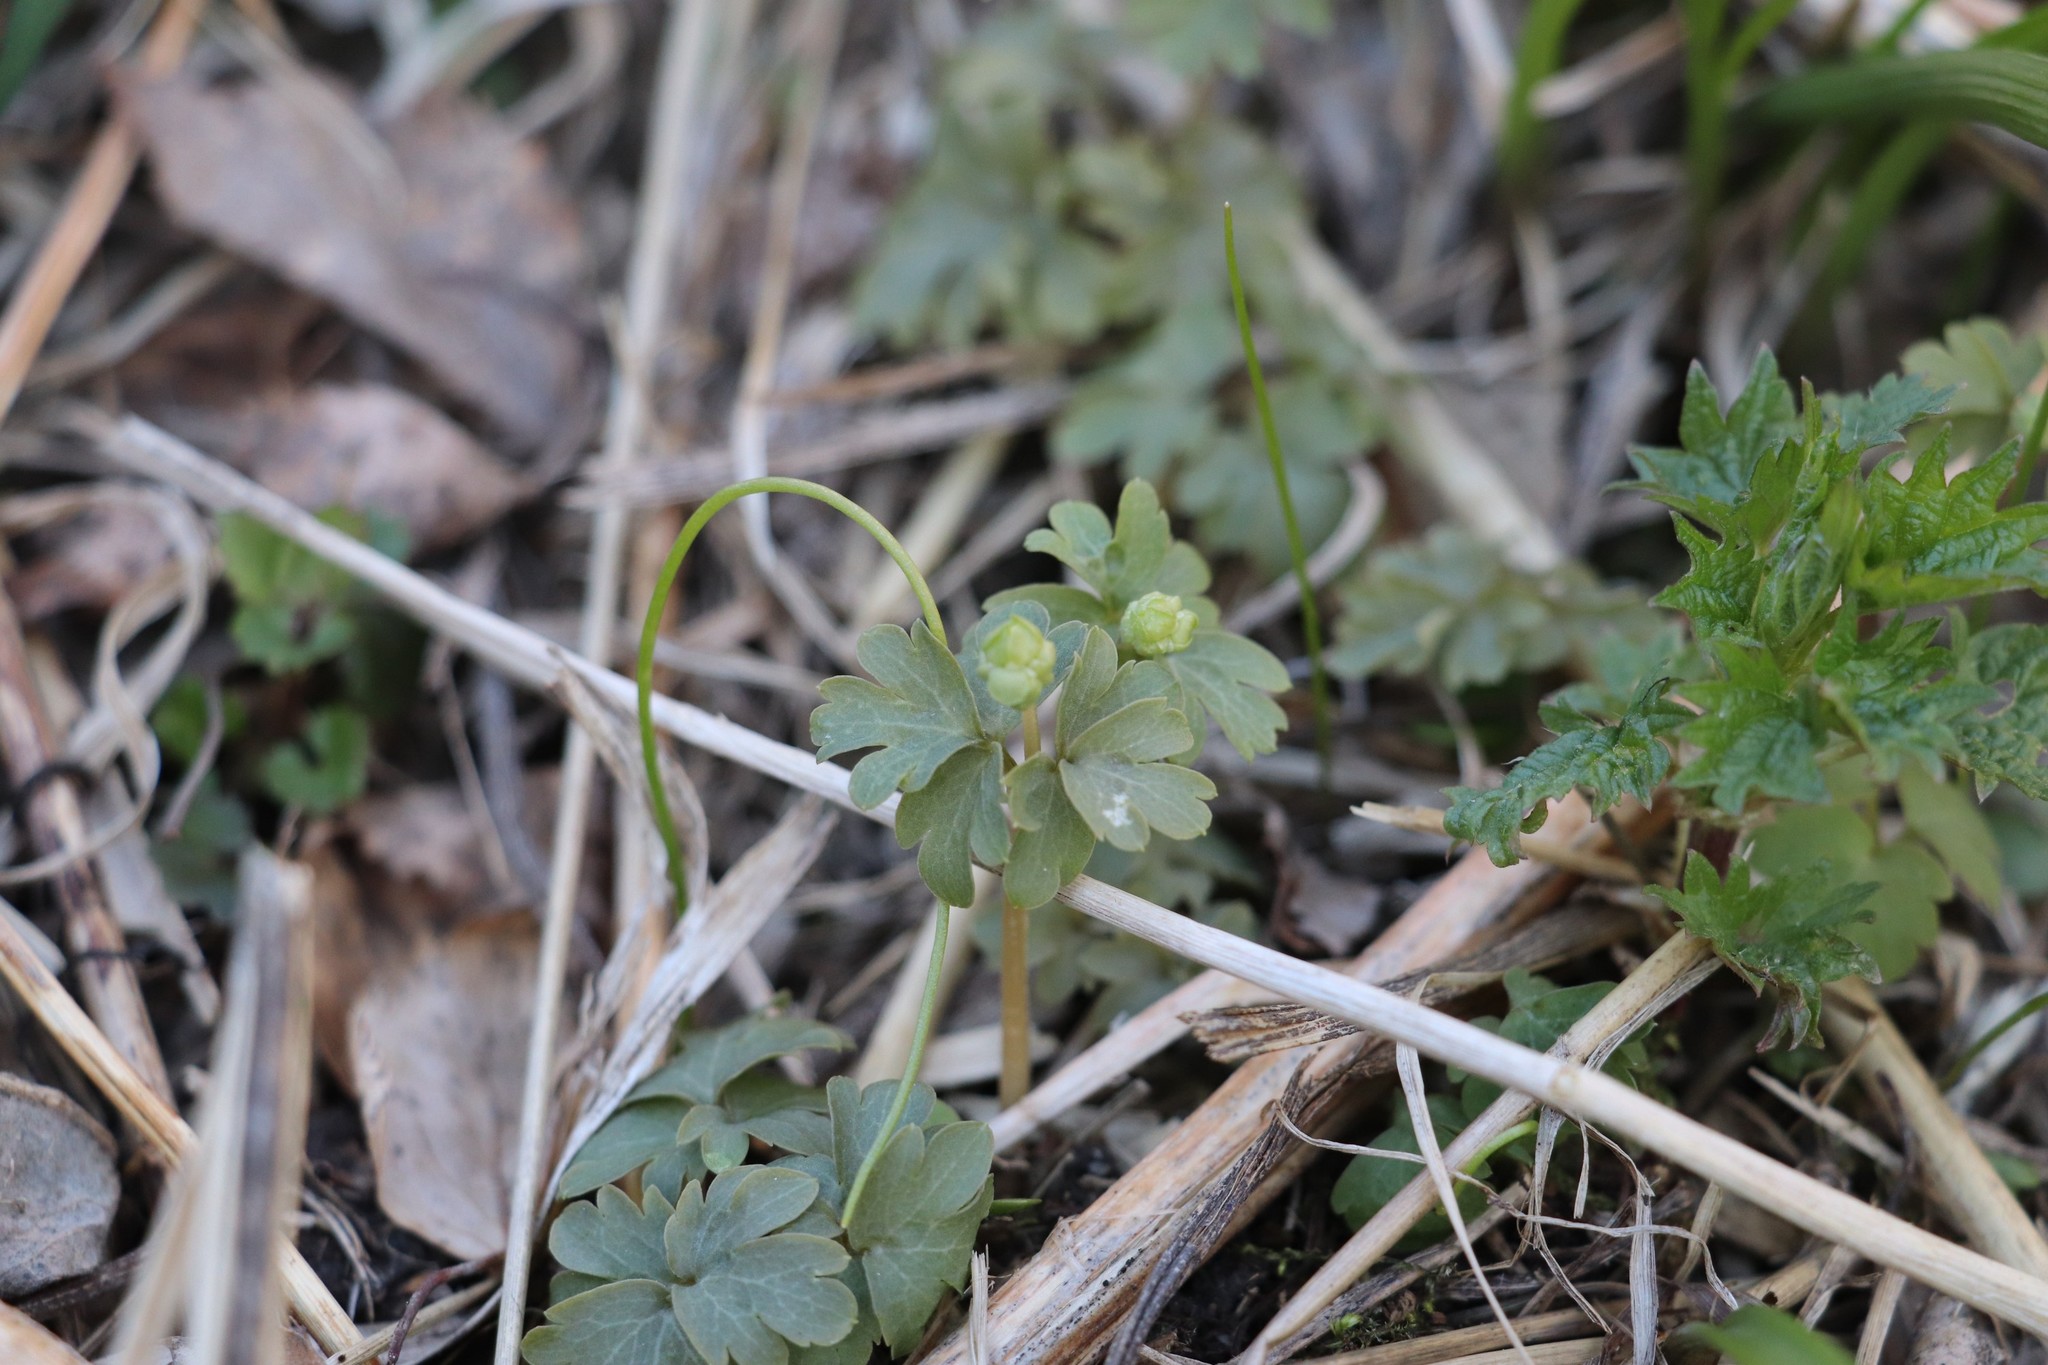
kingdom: Plantae
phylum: Tracheophyta
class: Magnoliopsida
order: Dipsacales
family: Viburnaceae
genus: Adoxa
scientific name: Adoxa moschatellina
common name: Moschatel
